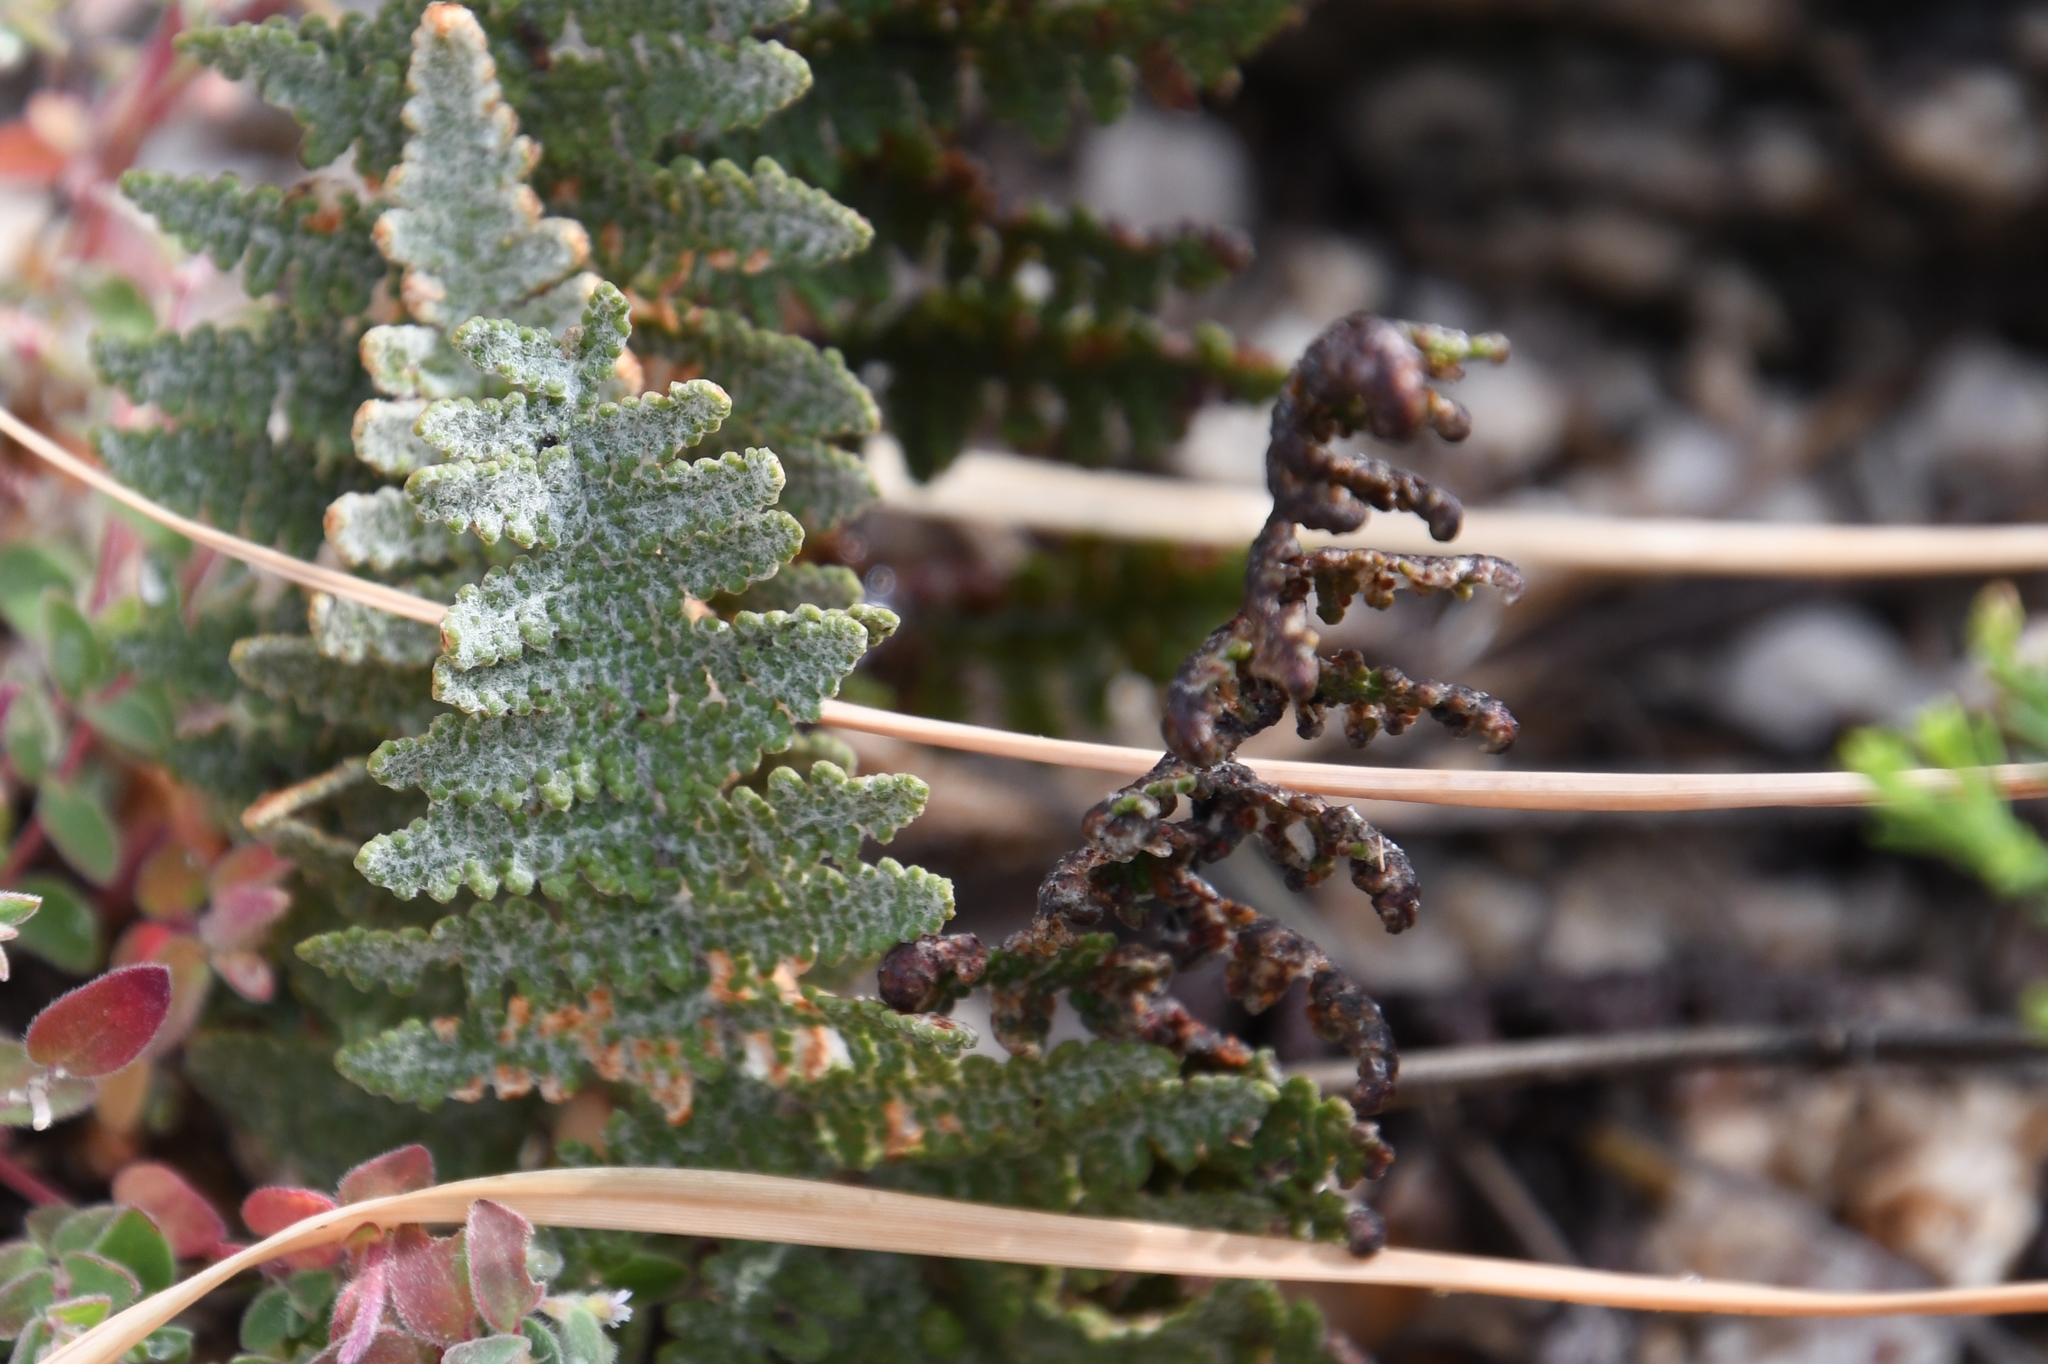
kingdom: Plantae
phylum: Tracheophyta
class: Polypodiopsida
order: Polypodiales
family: Pteridaceae
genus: Myriopteris
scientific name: Myriopteris lindheimeri
